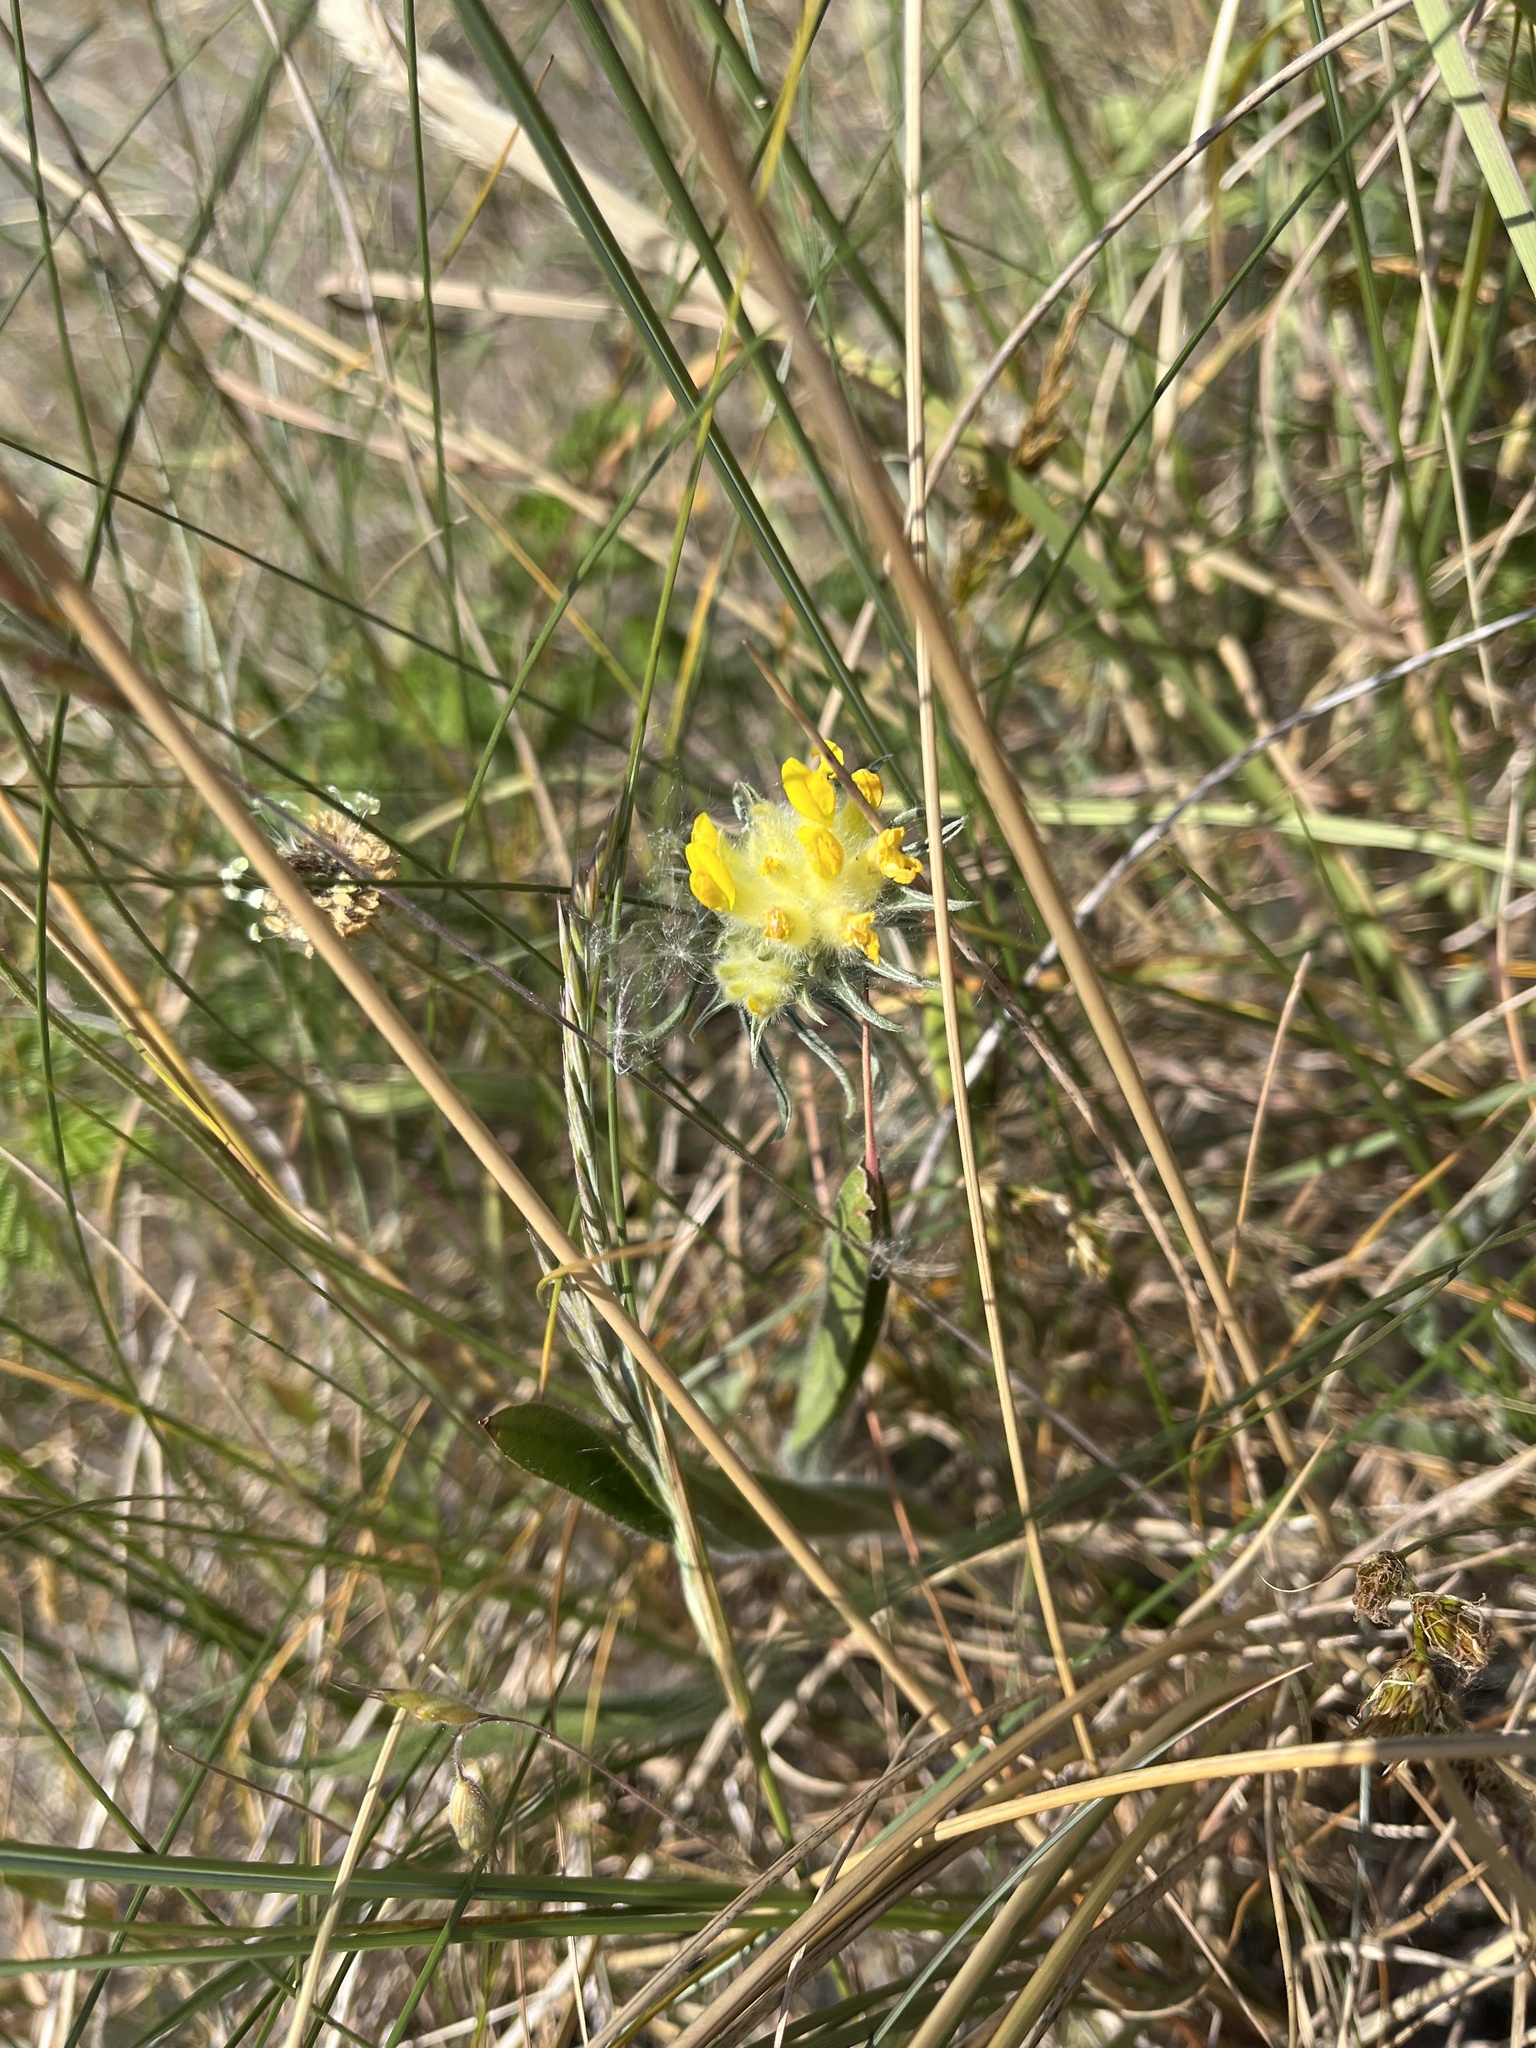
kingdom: Plantae
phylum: Tracheophyta
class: Magnoliopsida
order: Fabales
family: Fabaceae
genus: Anthyllis
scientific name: Anthyllis vulneraria
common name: Kidney vetch
